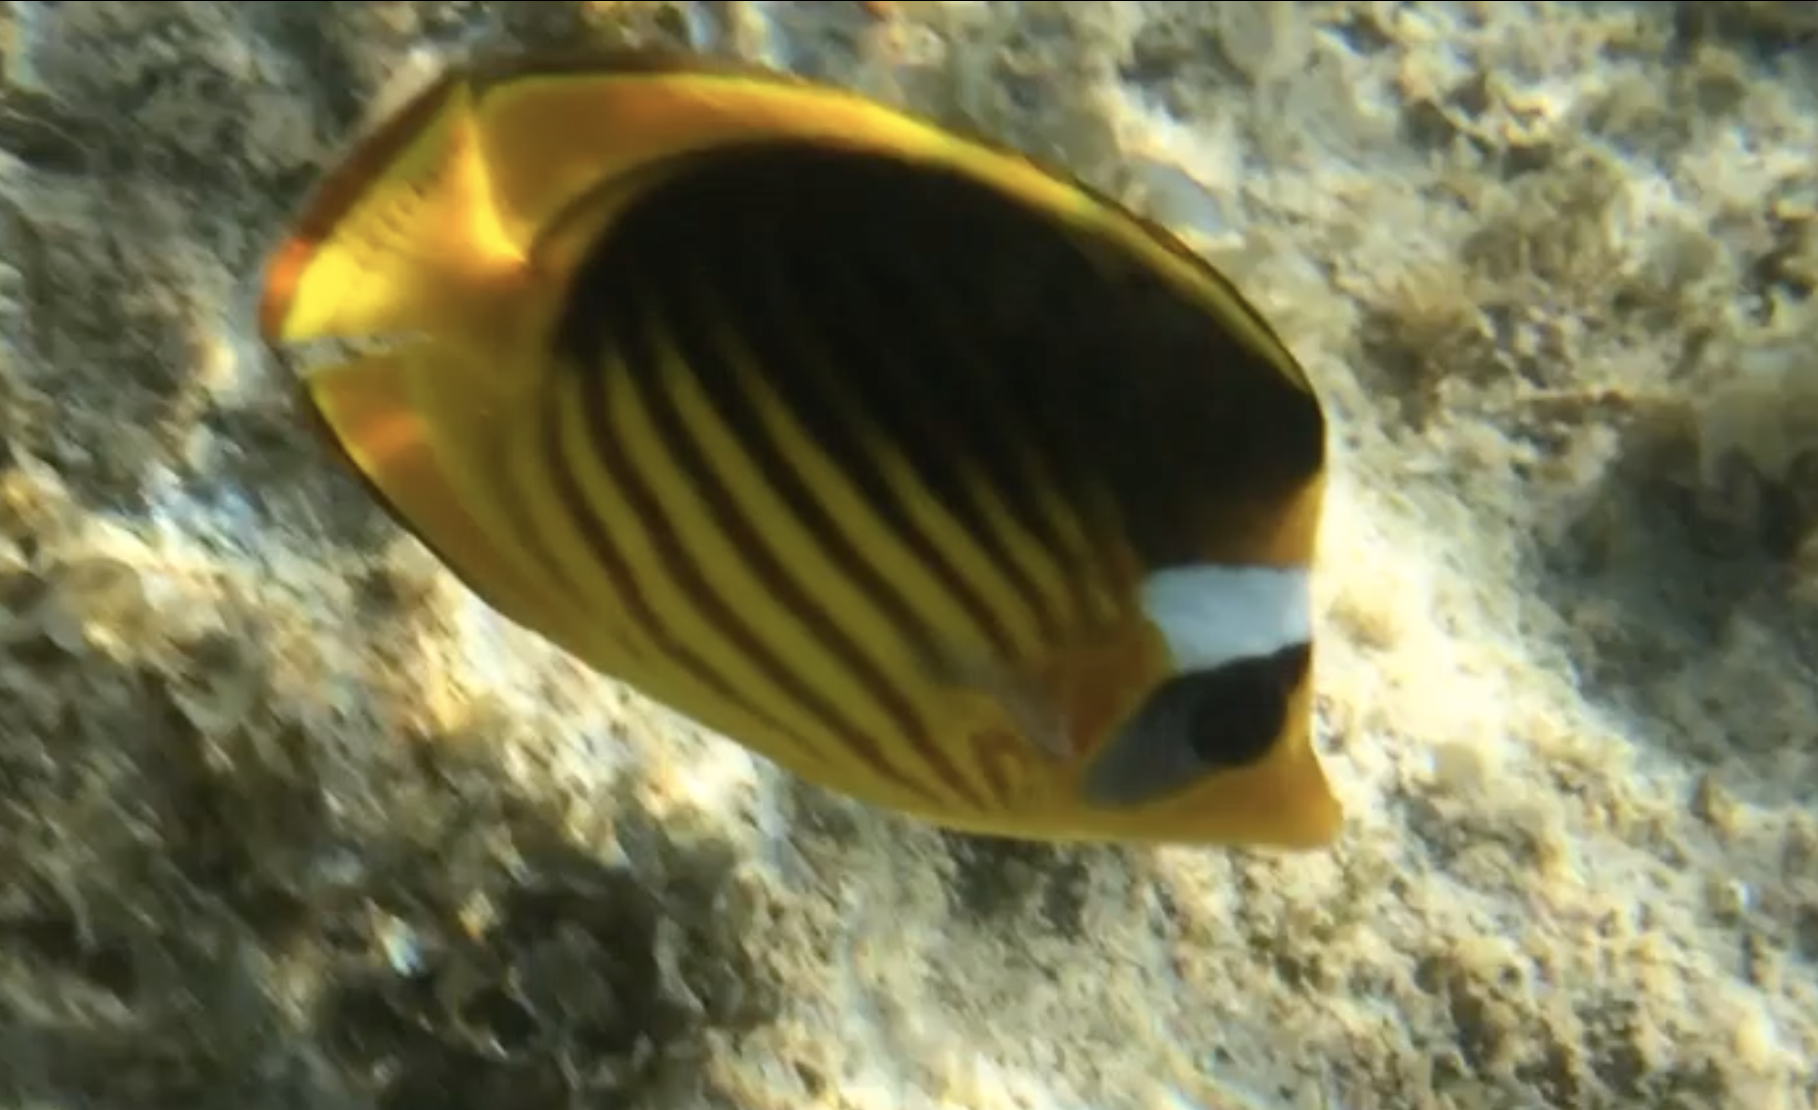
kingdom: Animalia
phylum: Chordata
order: Perciformes
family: Chaetodontidae
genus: Chaetodon
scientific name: Chaetodon fasciatus
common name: Diagonal butterflyfish
